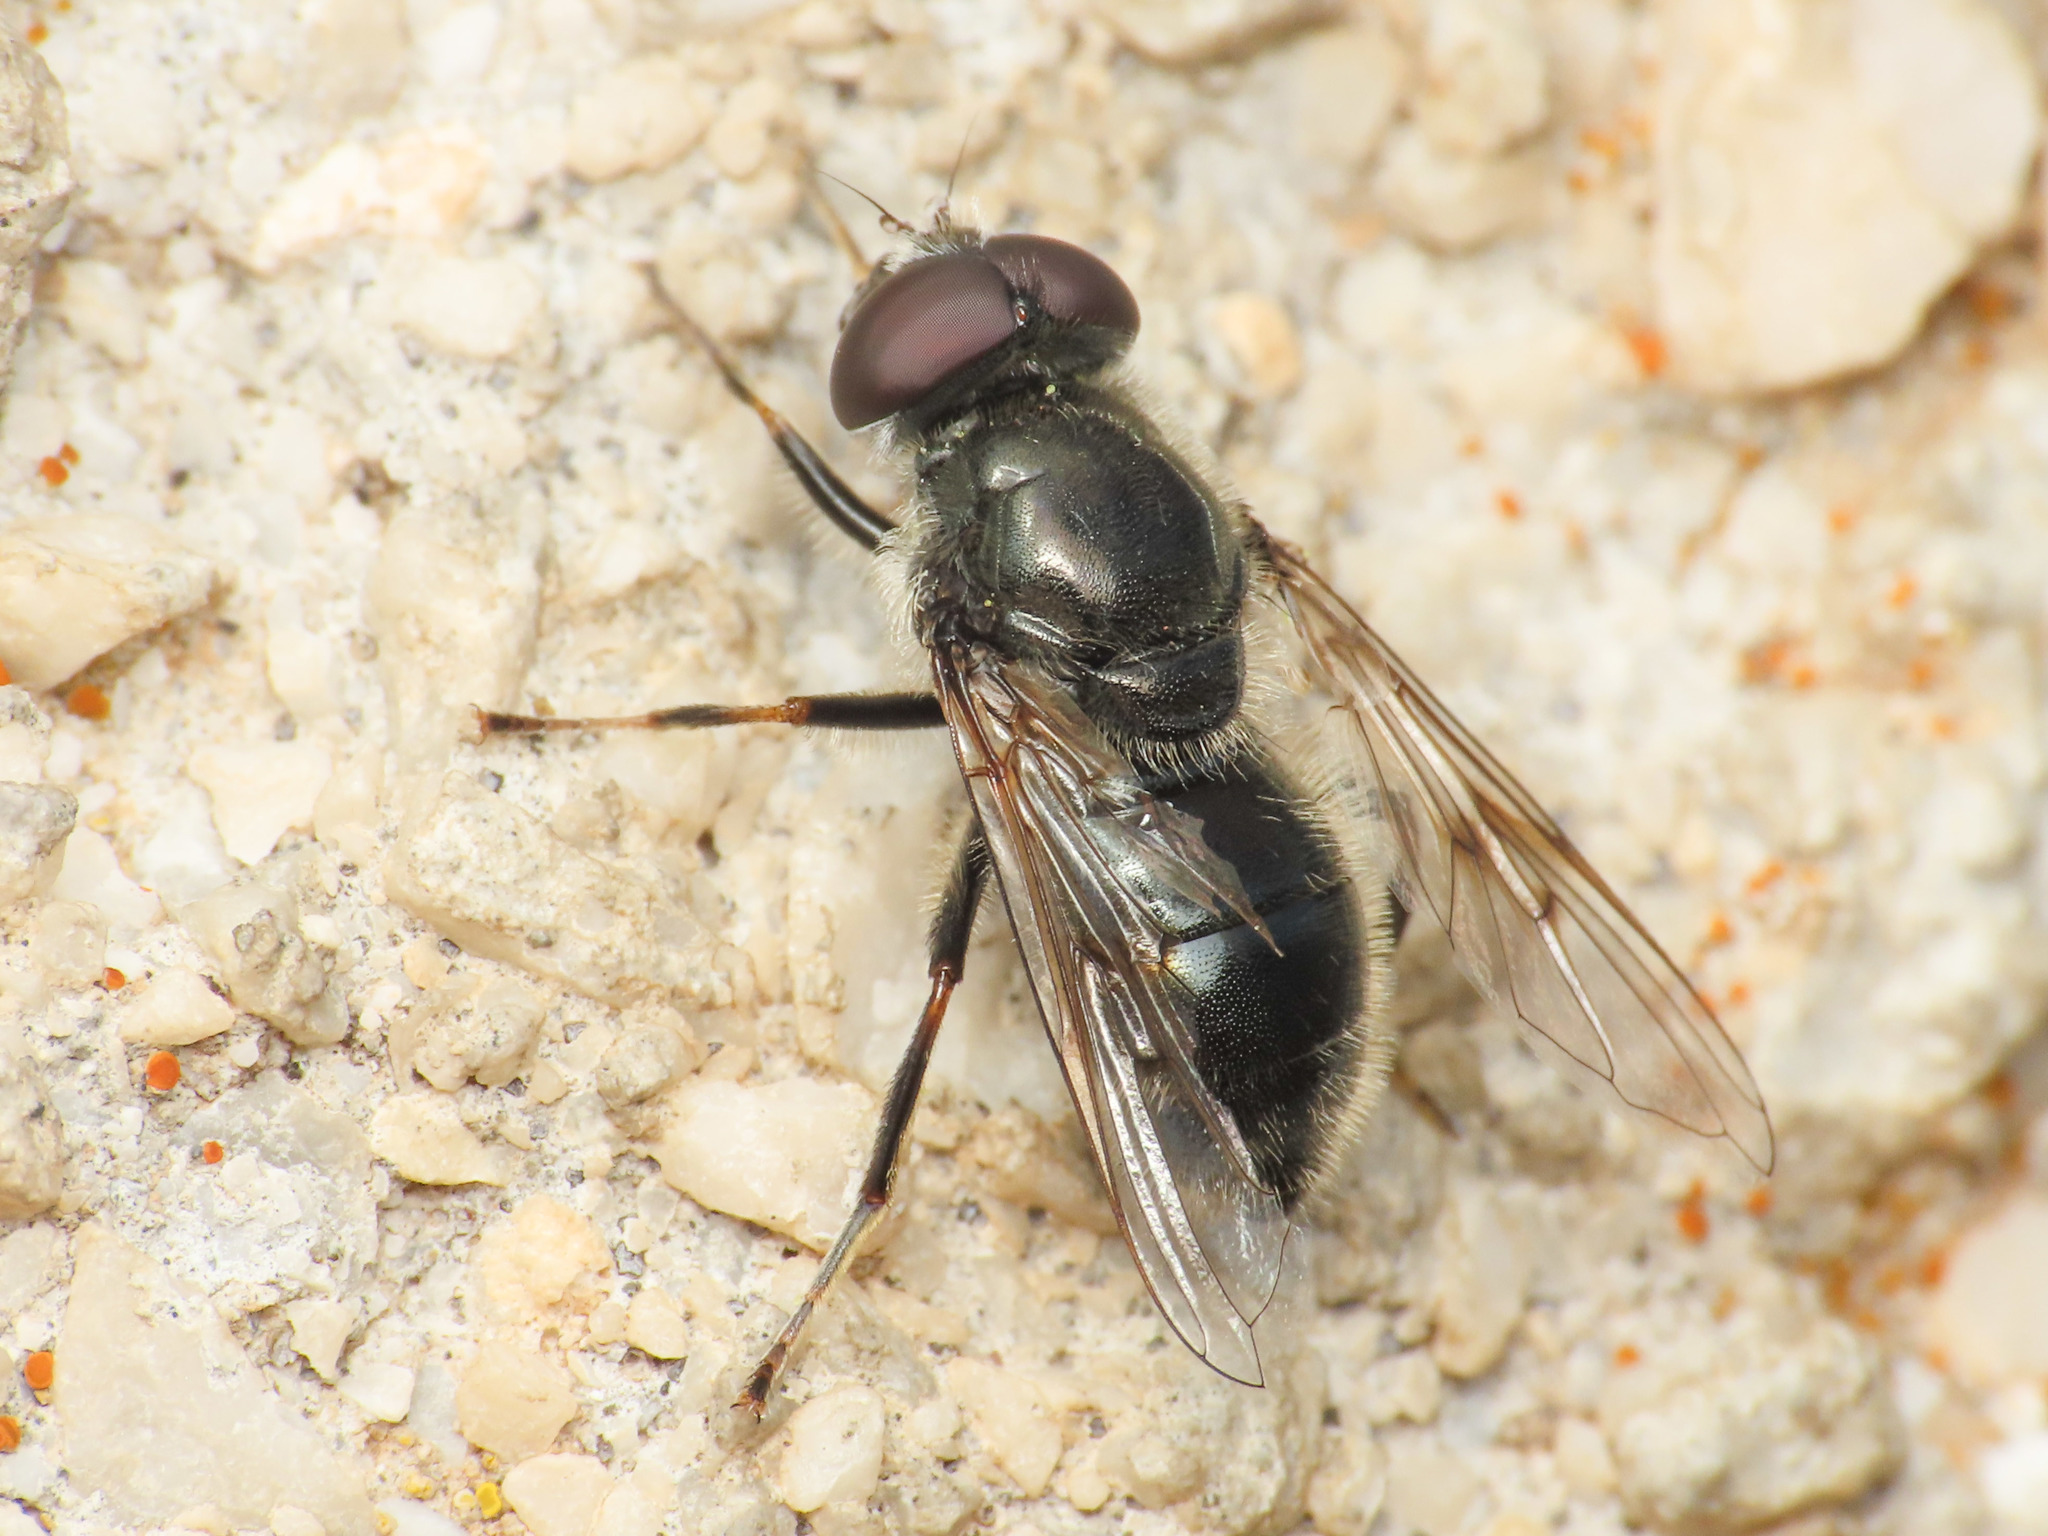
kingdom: Animalia
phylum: Arthropoda
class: Insecta
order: Diptera
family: Syrphidae
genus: Cheilosia
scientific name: Cheilosia caerulescens
